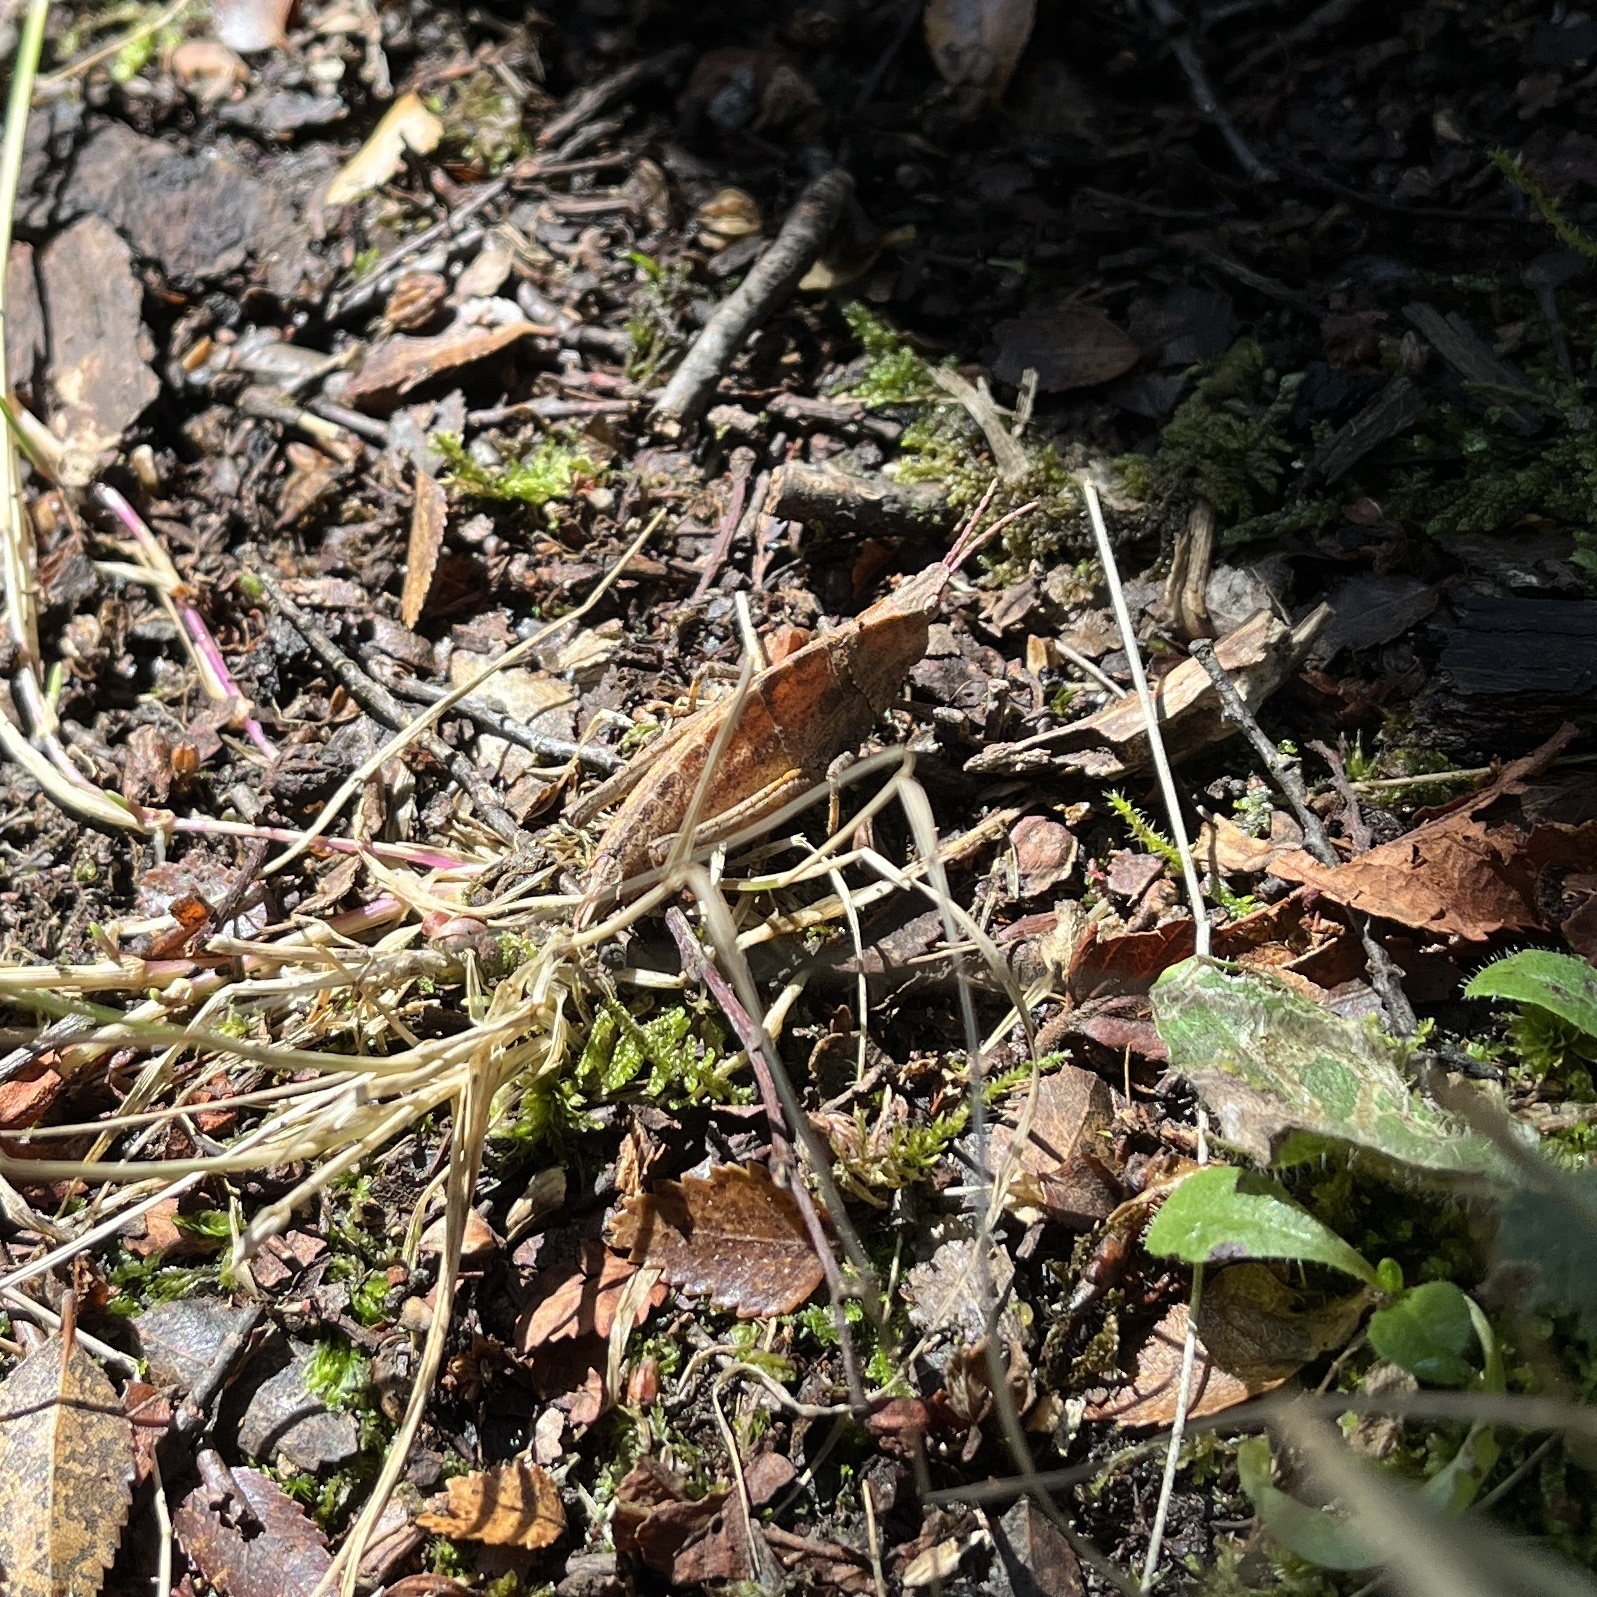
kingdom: Animalia
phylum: Arthropoda
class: Insecta
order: Orthoptera
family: Tristiridae
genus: Tropidostethus
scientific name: Tropidostethus angusticollis
